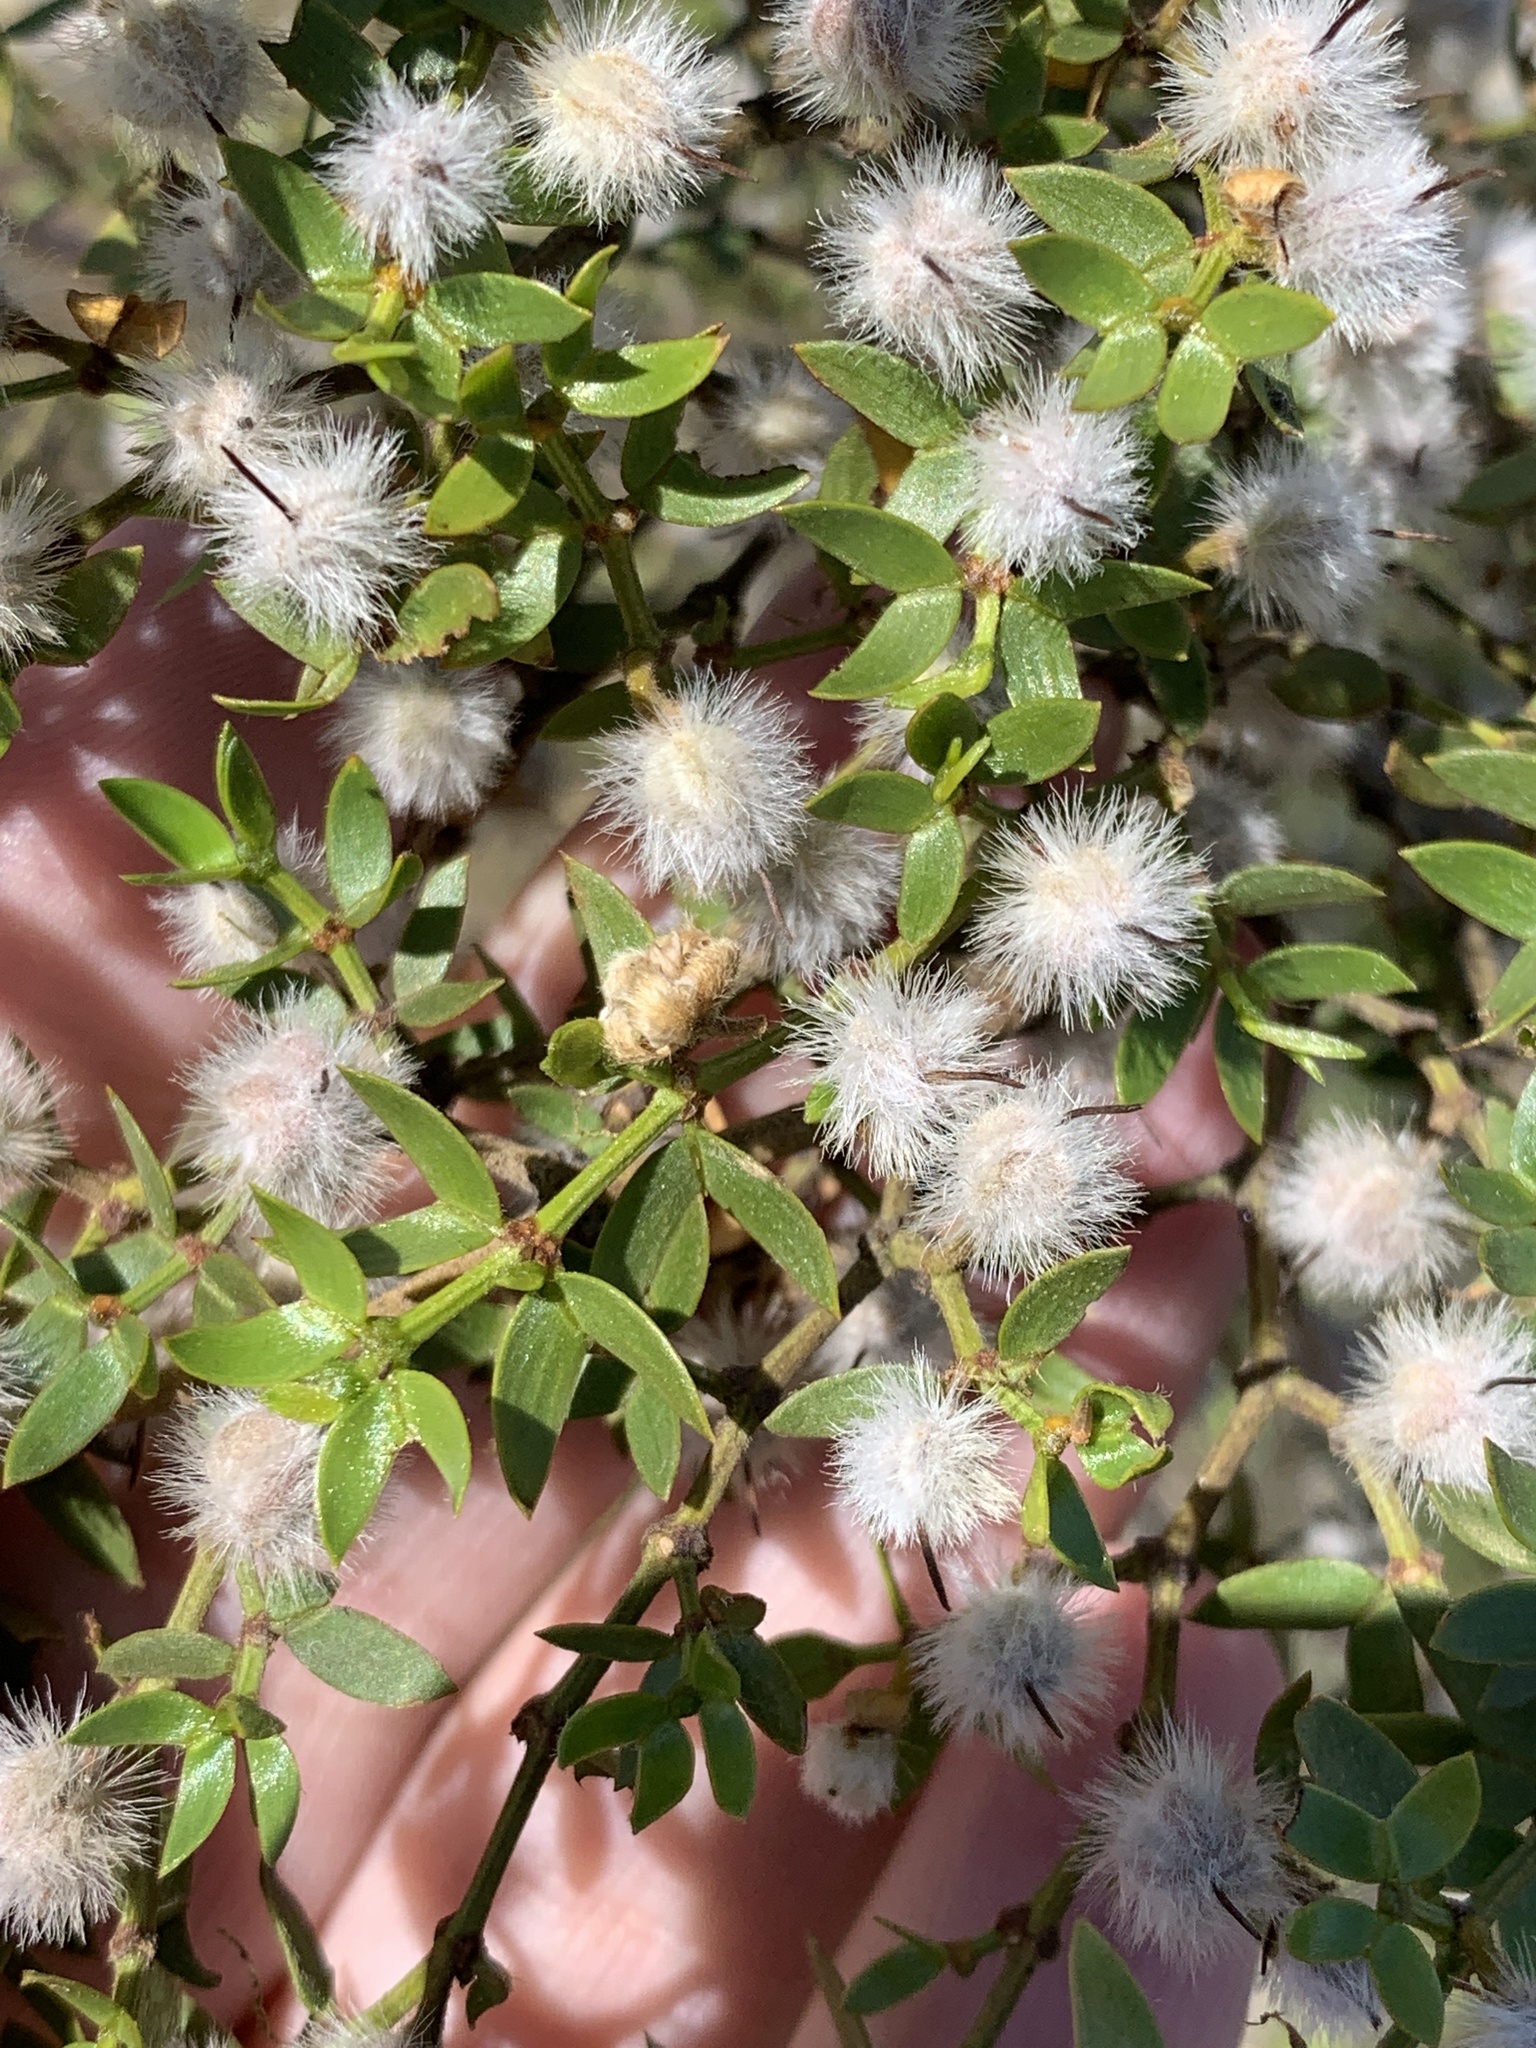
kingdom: Plantae
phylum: Tracheophyta
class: Magnoliopsida
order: Zygophyllales
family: Zygophyllaceae
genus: Larrea
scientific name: Larrea divaricata
